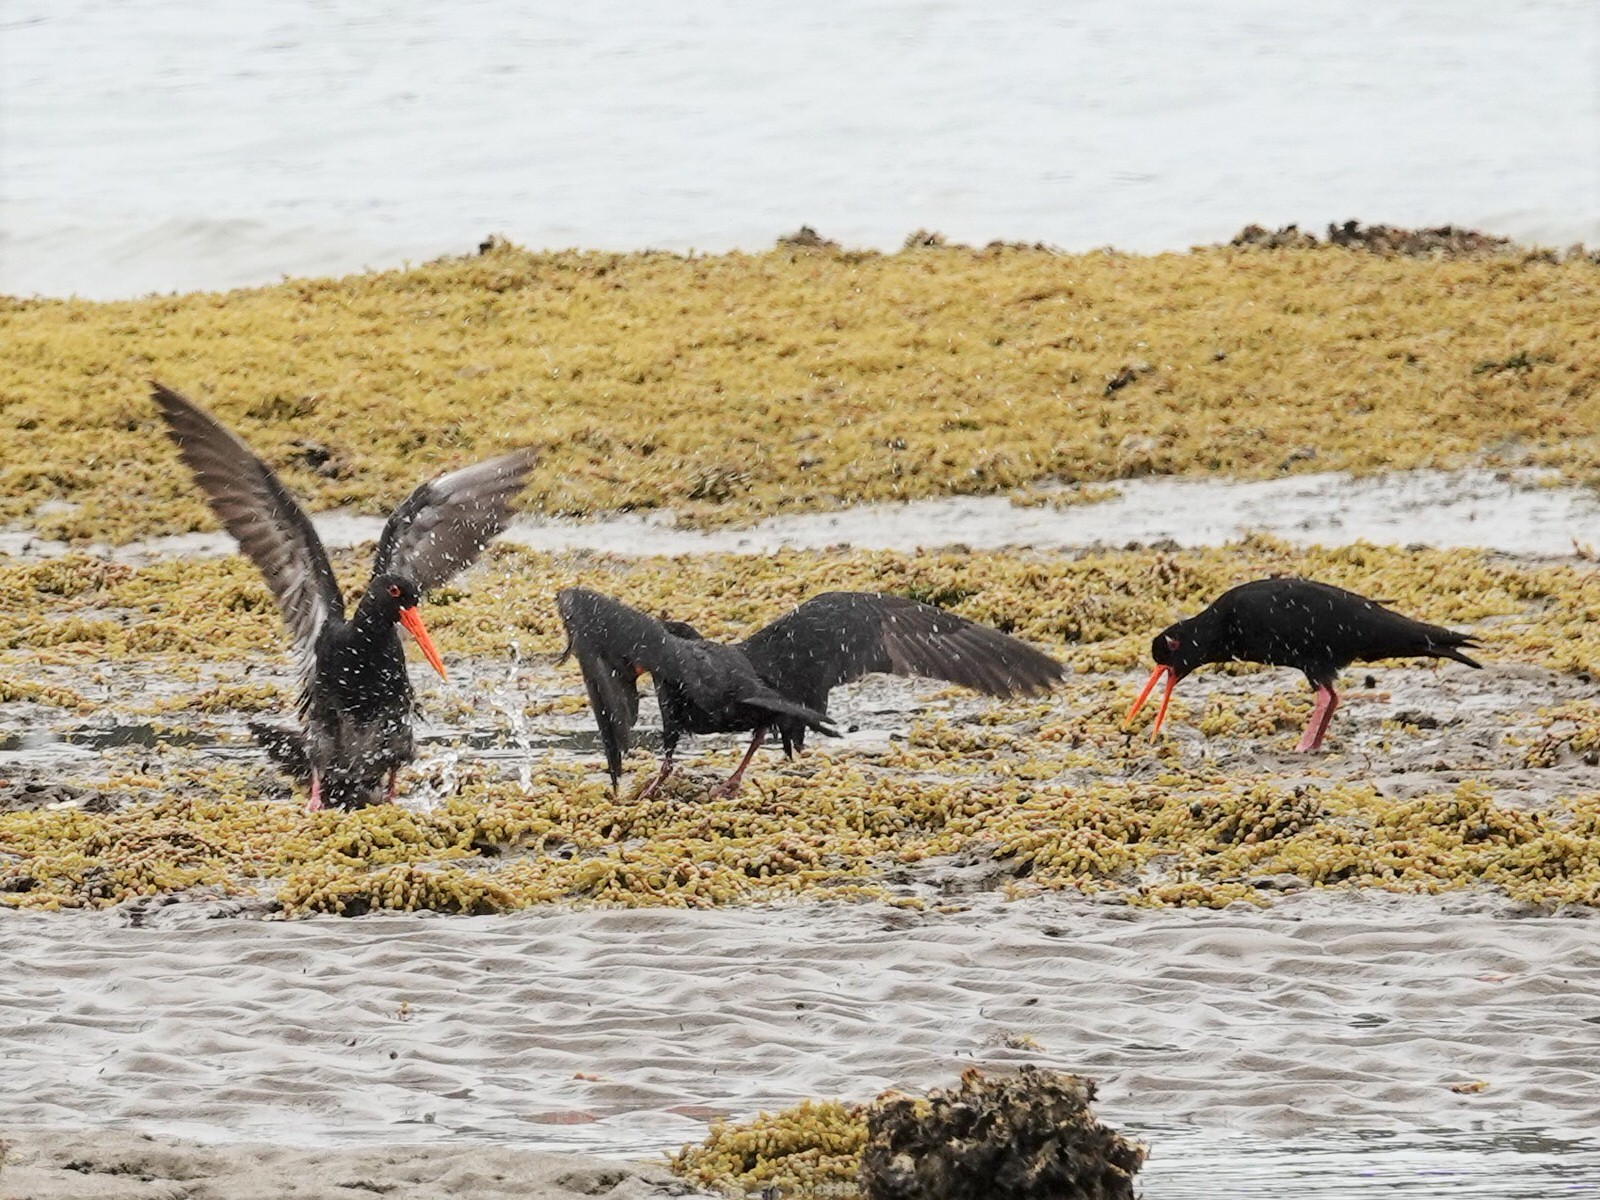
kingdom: Animalia
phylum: Chordata
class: Aves
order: Charadriiformes
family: Haematopodidae
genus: Haematopus
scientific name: Haematopus unicolor
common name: Variable oystercatcher
